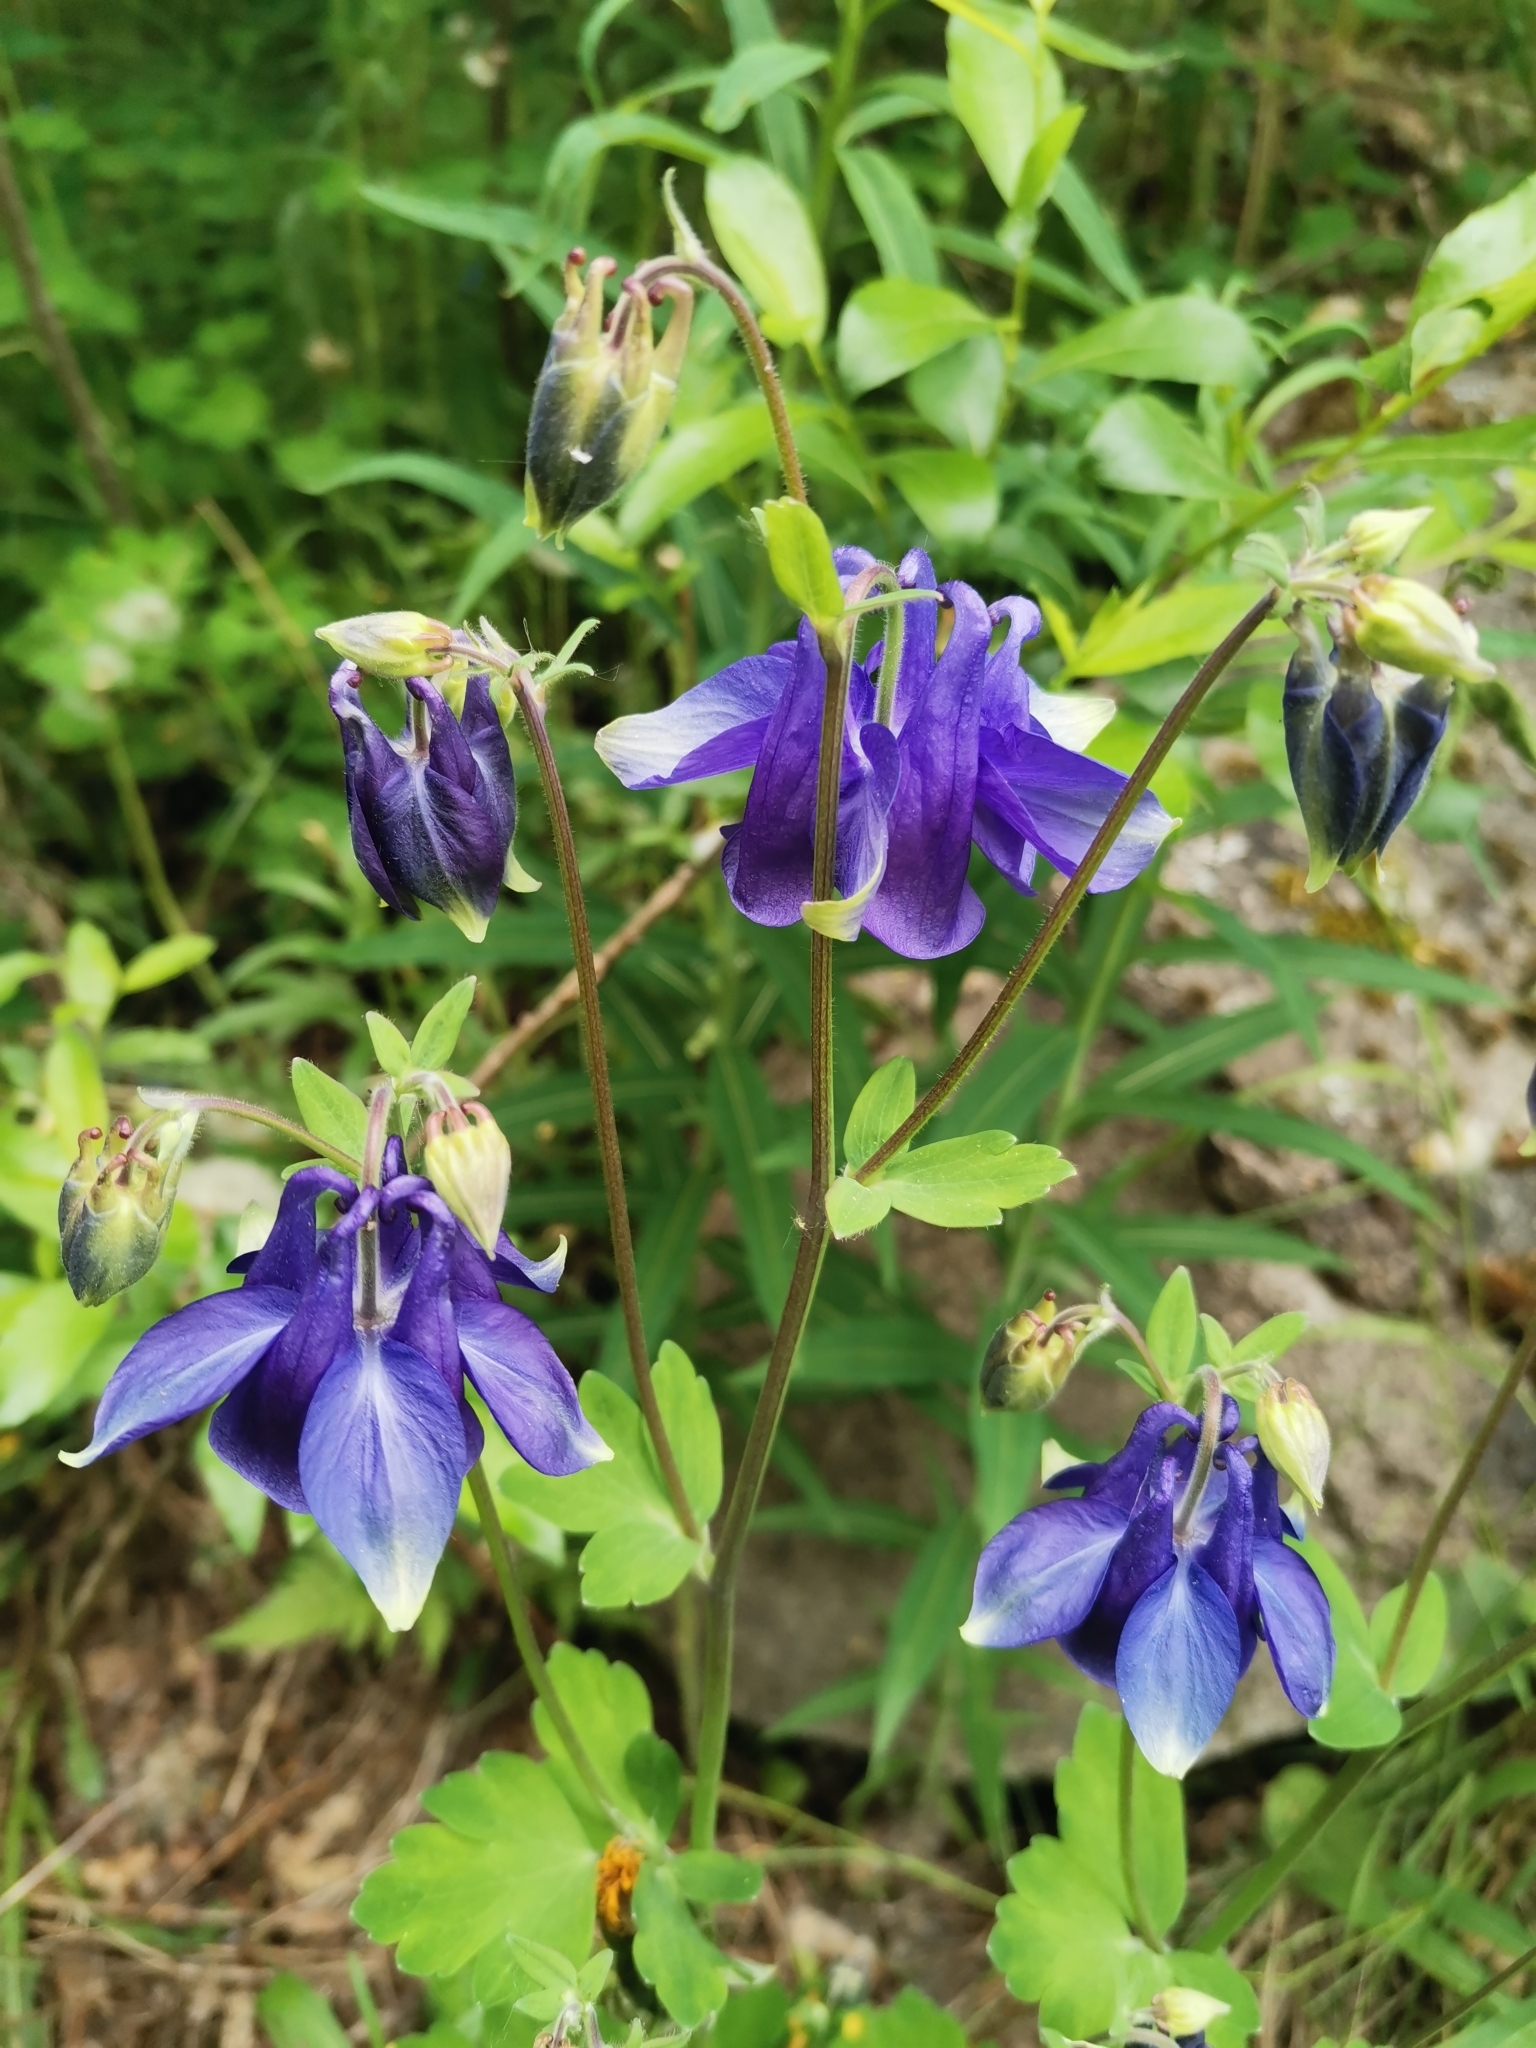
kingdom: Plantae
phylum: Tracheophyta
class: Magnoliopsida
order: Ranunculales
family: Ranunculaceae
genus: Aquilegia
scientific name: Aquilegia vulgaris
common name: Columbine
